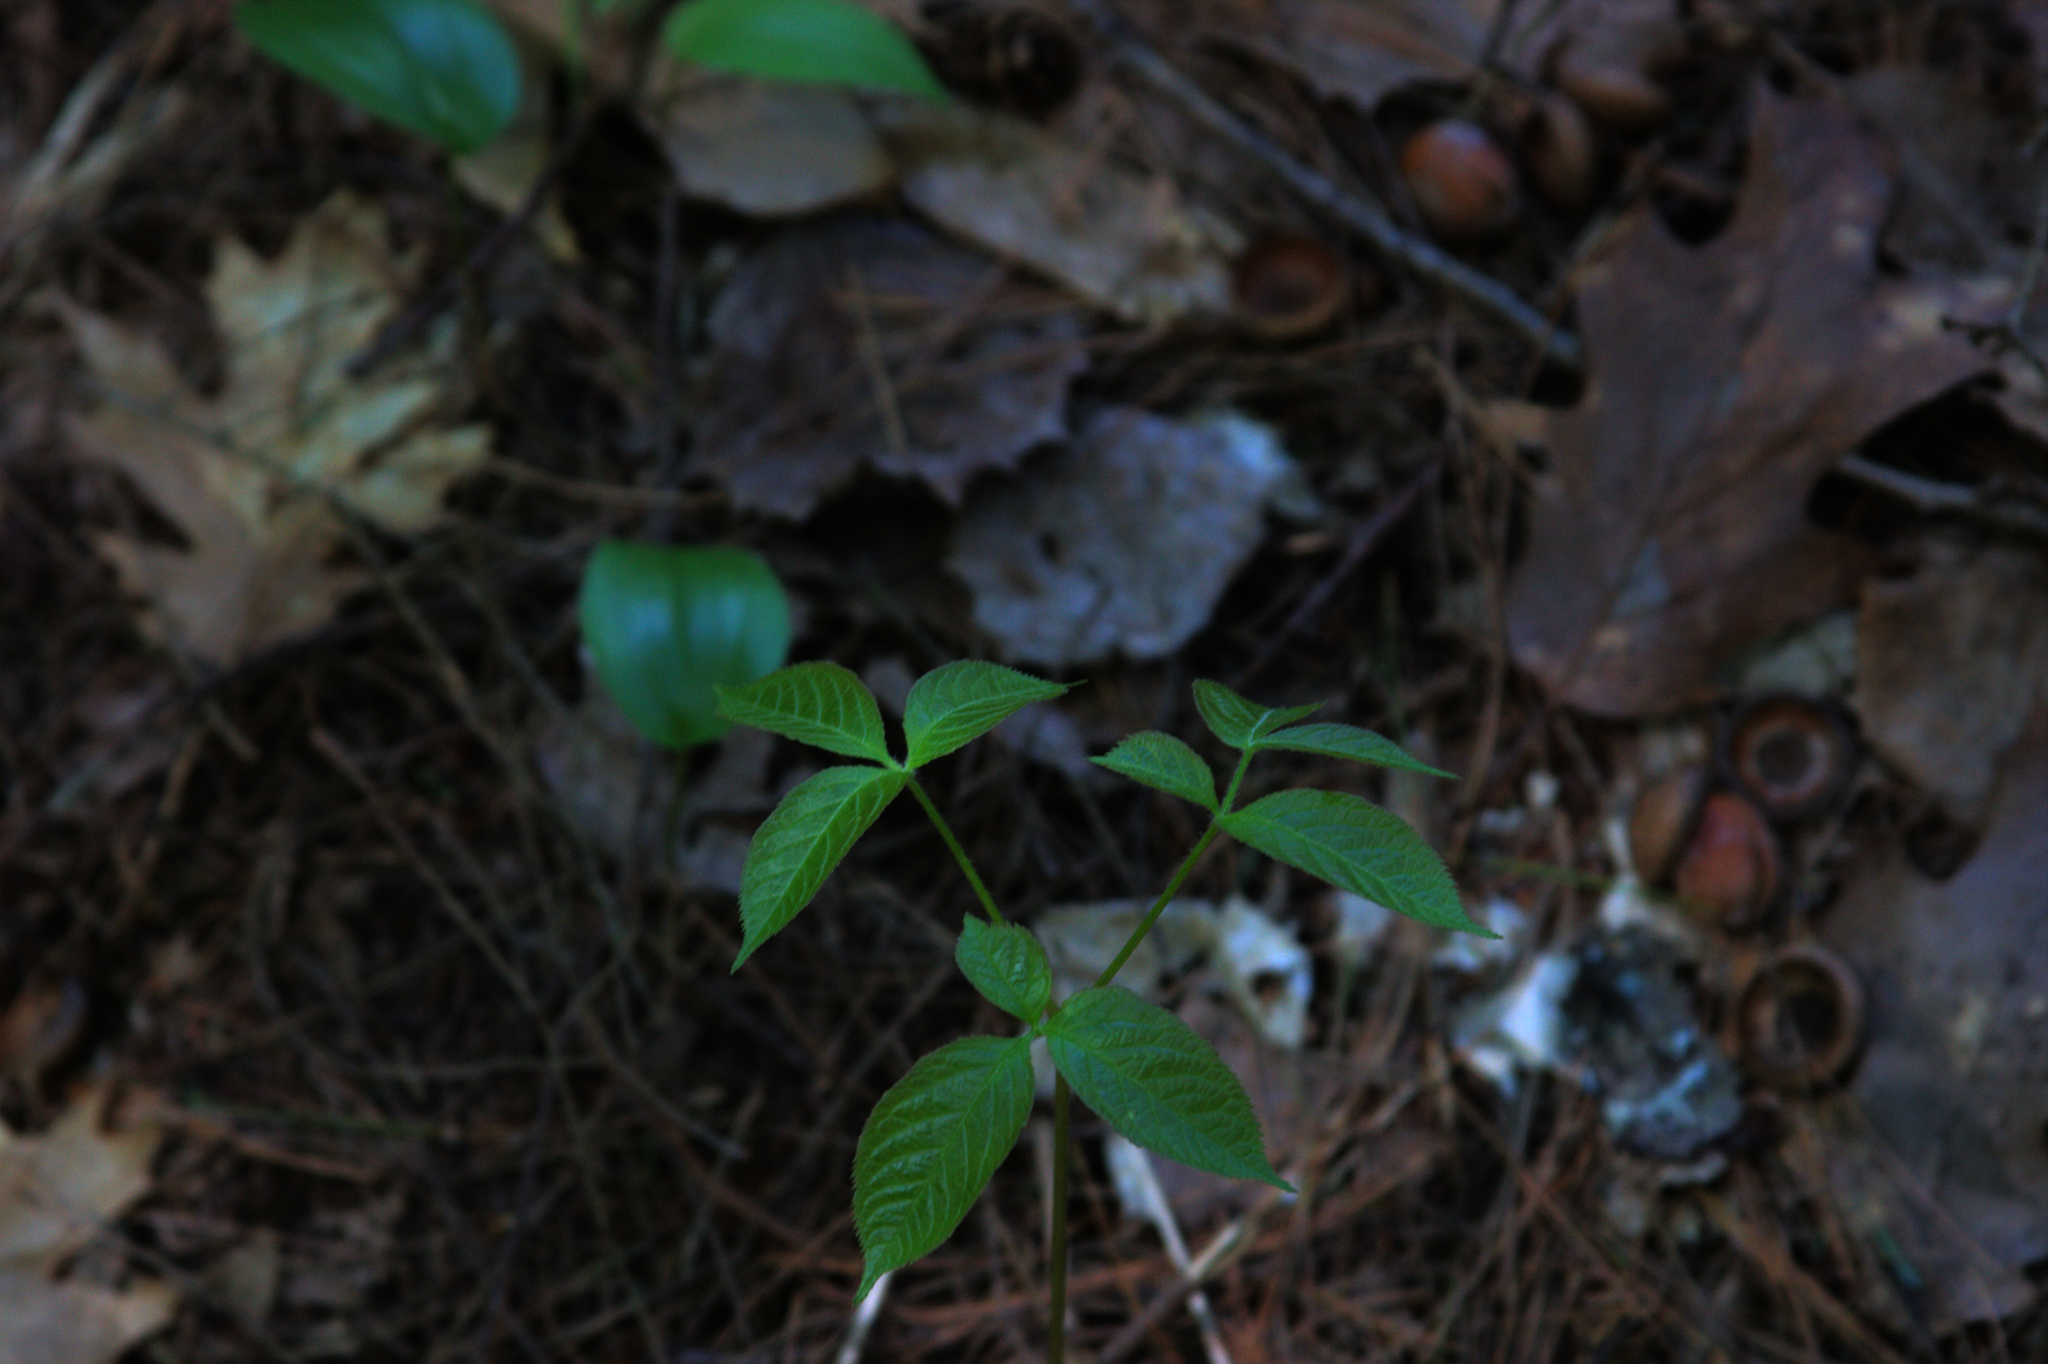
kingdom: Plantae
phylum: Tracheophyta
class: Liliopsida
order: Asparagales
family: Asparagaceae
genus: Maianthemum
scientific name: Maianthemum canadense
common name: False lily-of-the-valley
